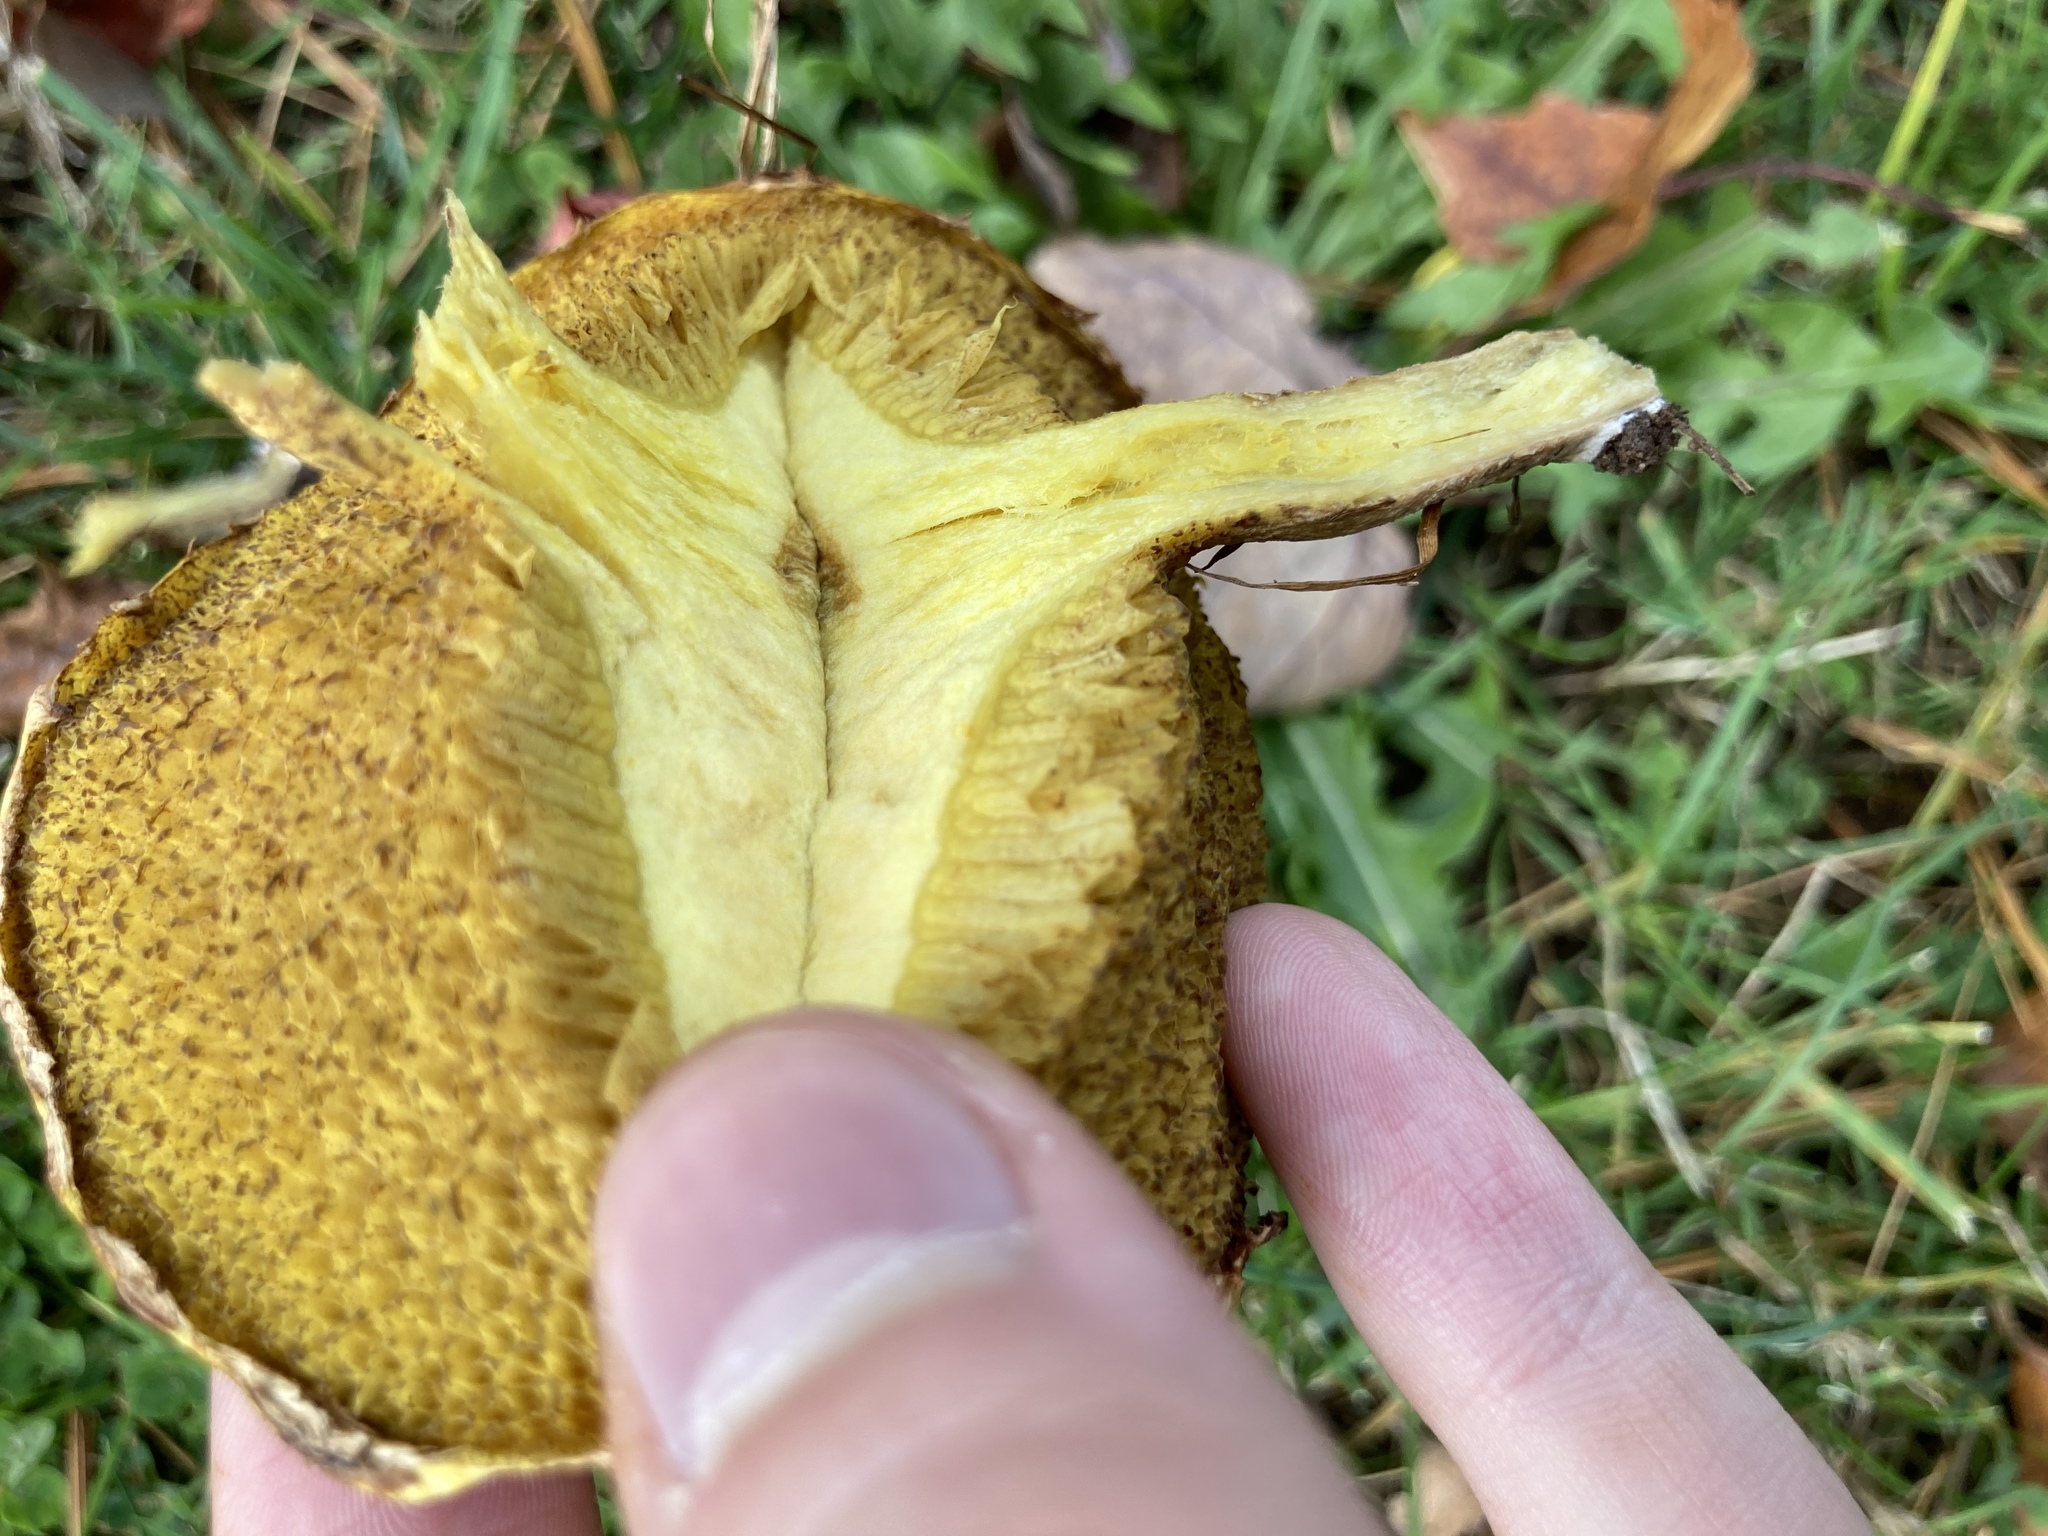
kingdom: Fungi
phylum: Basidiomycota
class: Agaricomycetes
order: Boletales
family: Suillaceae
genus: Suillus
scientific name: Suillus americanus
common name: Chicken fat mushroom
